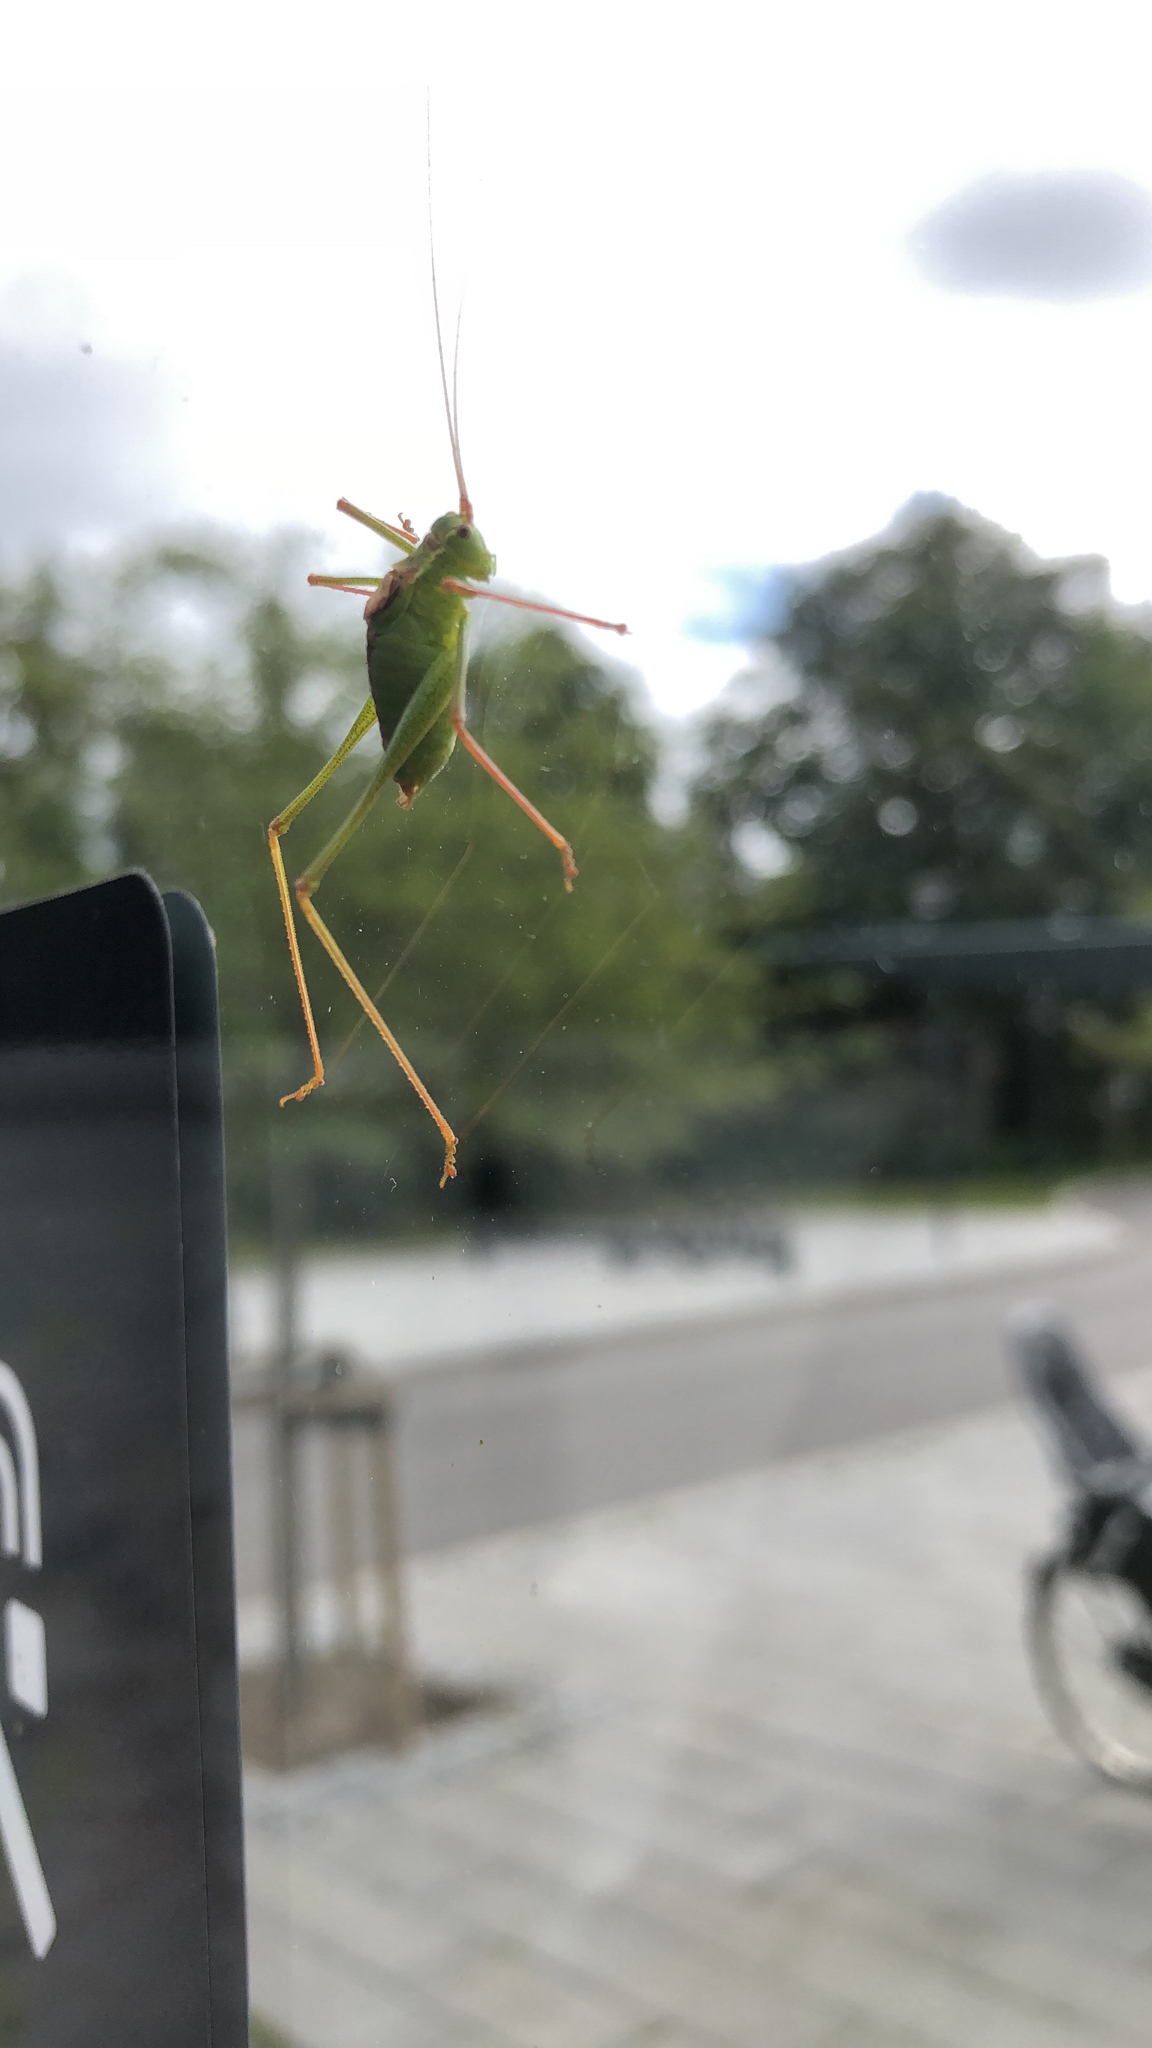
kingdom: Animalia
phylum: Arthropoda
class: Insecta
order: Orthoptera
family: Tettigoniidae
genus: Leptophyes
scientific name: Leptophyes punctatissima
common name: Speckled bush-cricket
